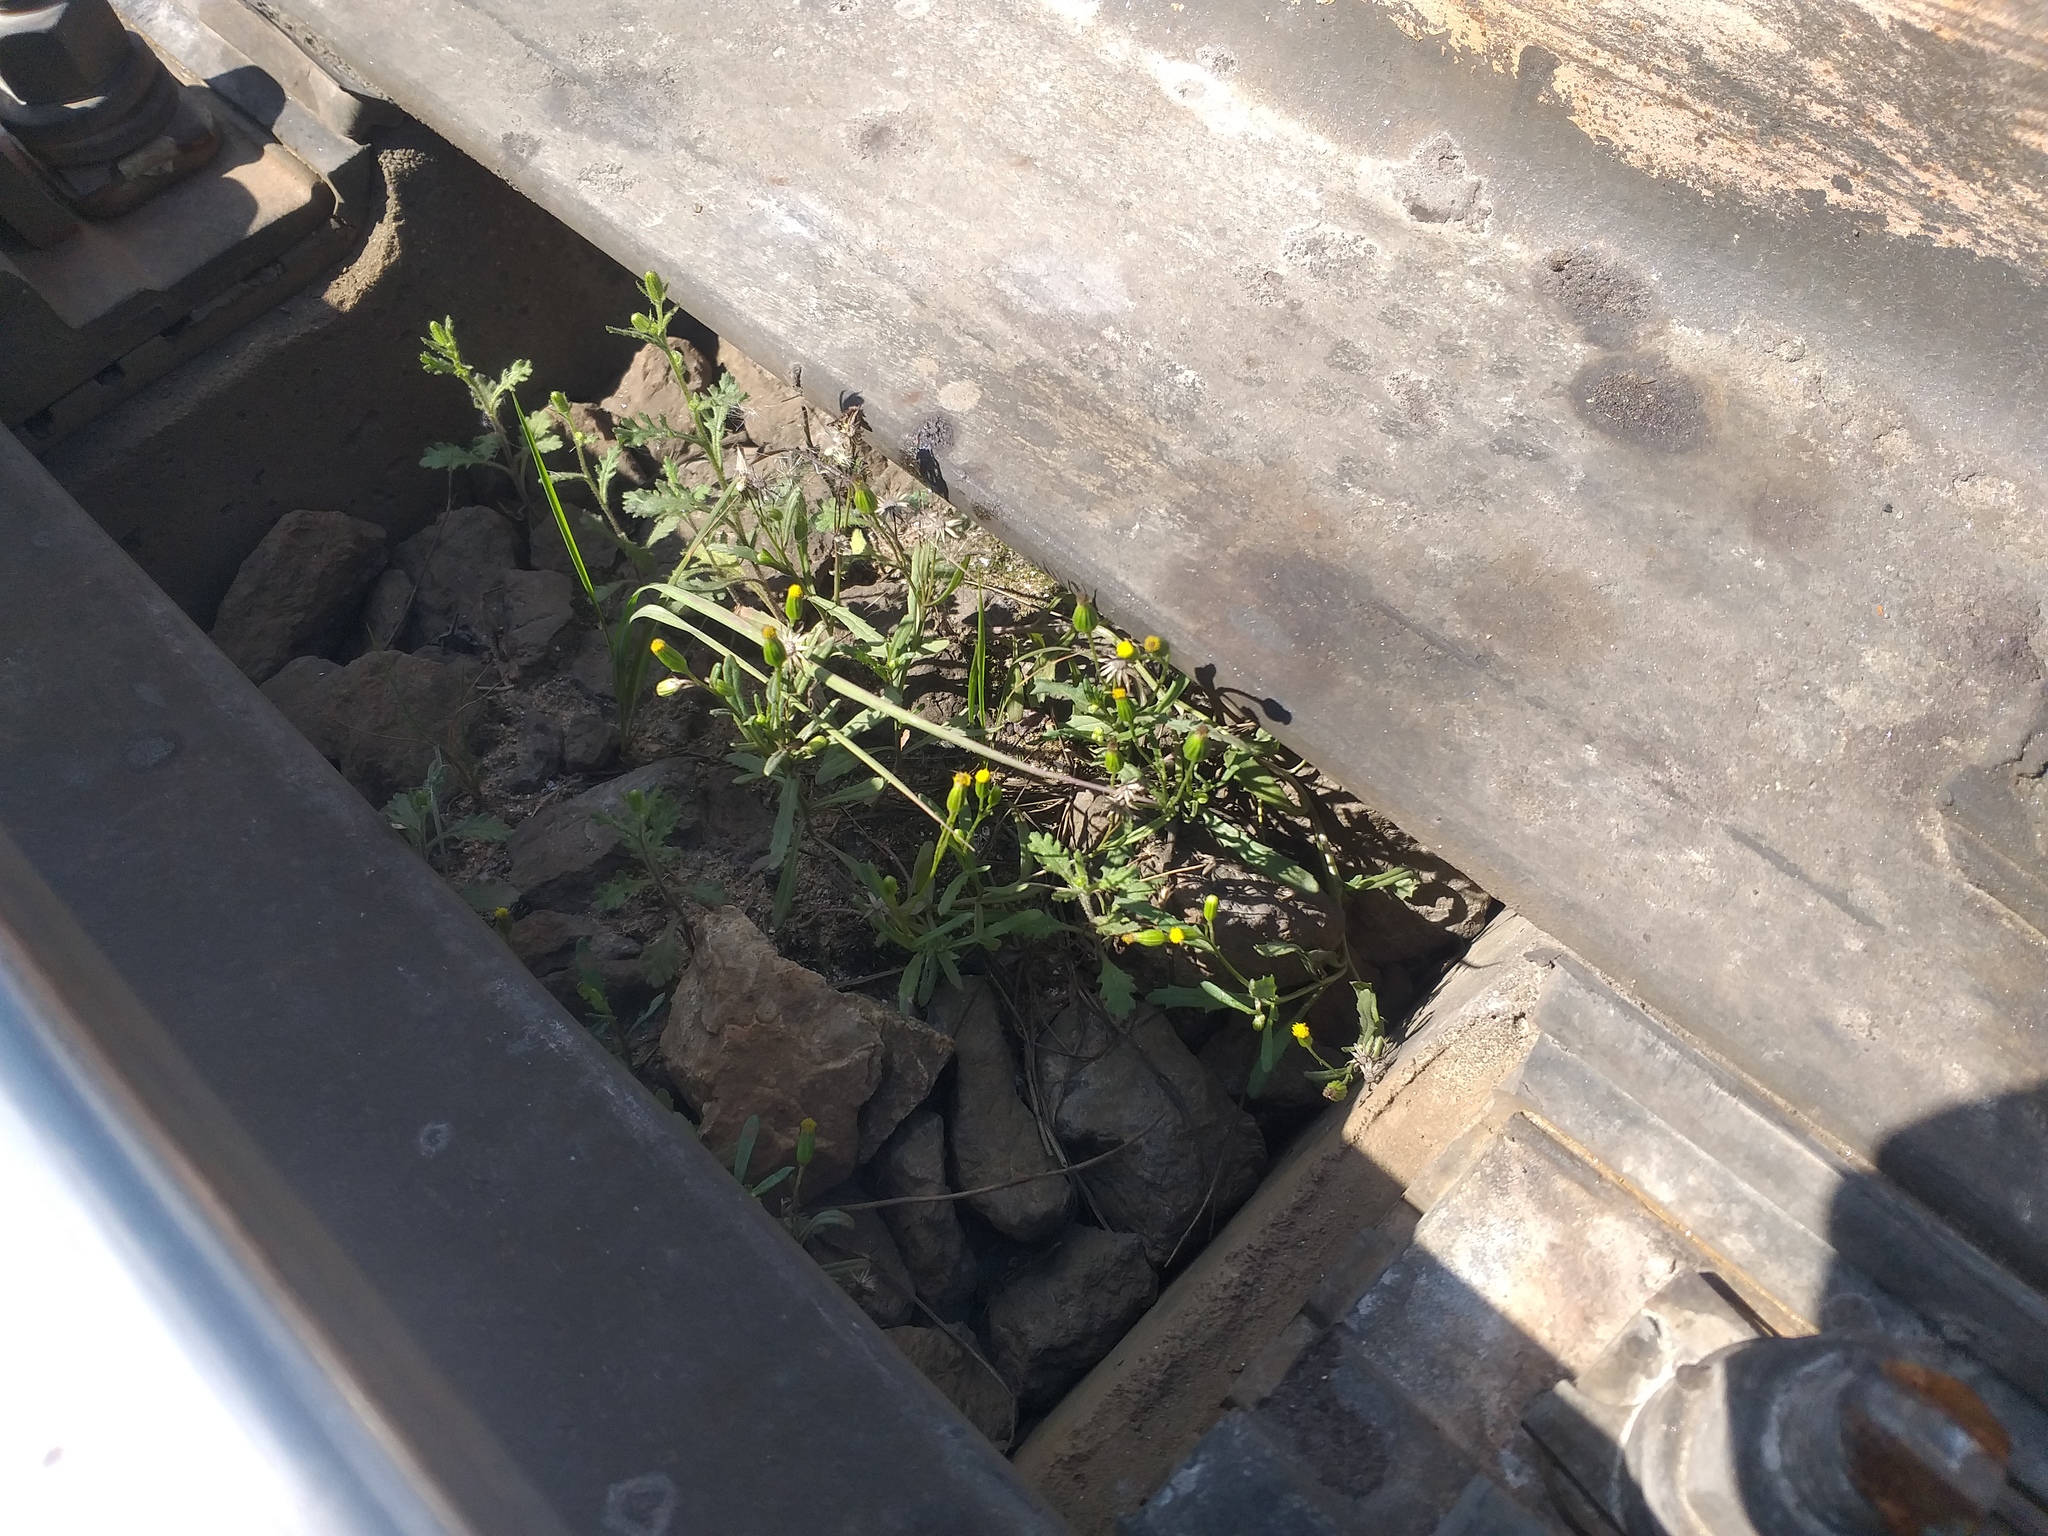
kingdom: Plantae
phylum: Tracheophyta
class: Magnoliopsida
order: Asterales
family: Asteraceae
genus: Senecio
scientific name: Senecio dubitabilis
